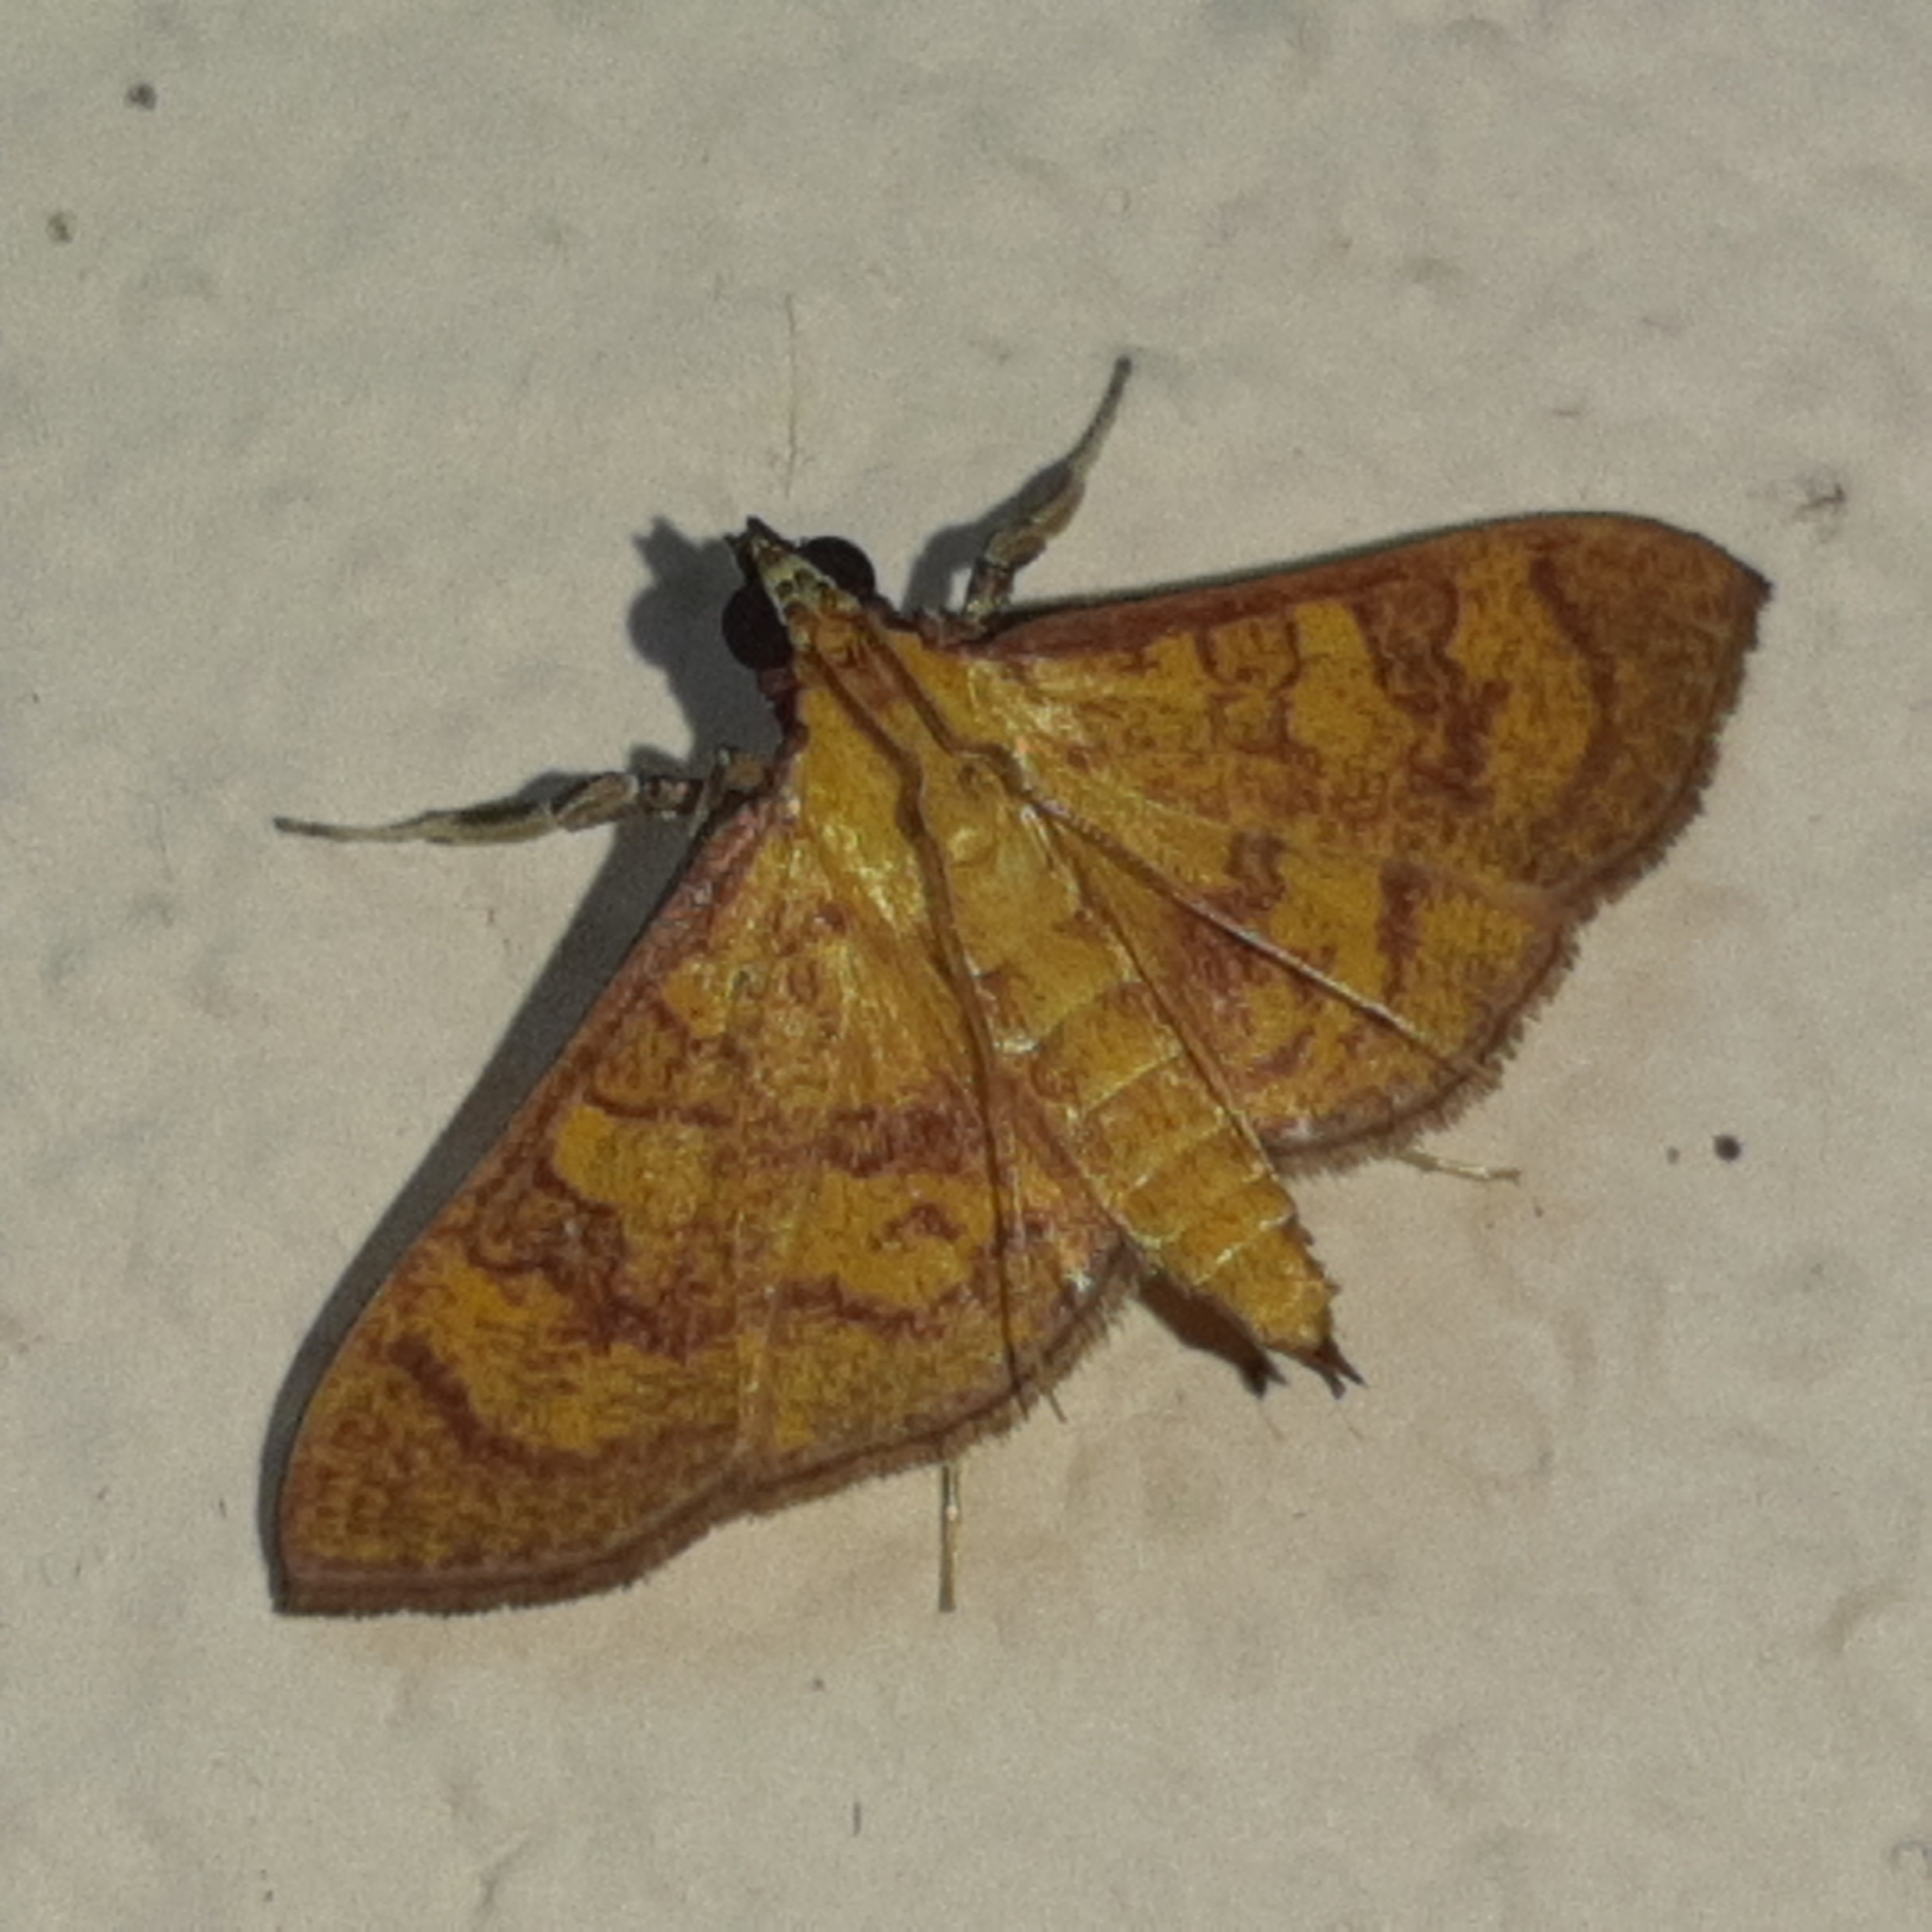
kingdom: Animalia
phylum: Arthropoda
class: Insecta
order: Lepidoptera
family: Crambidae
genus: Trithyris
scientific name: Trithyris
